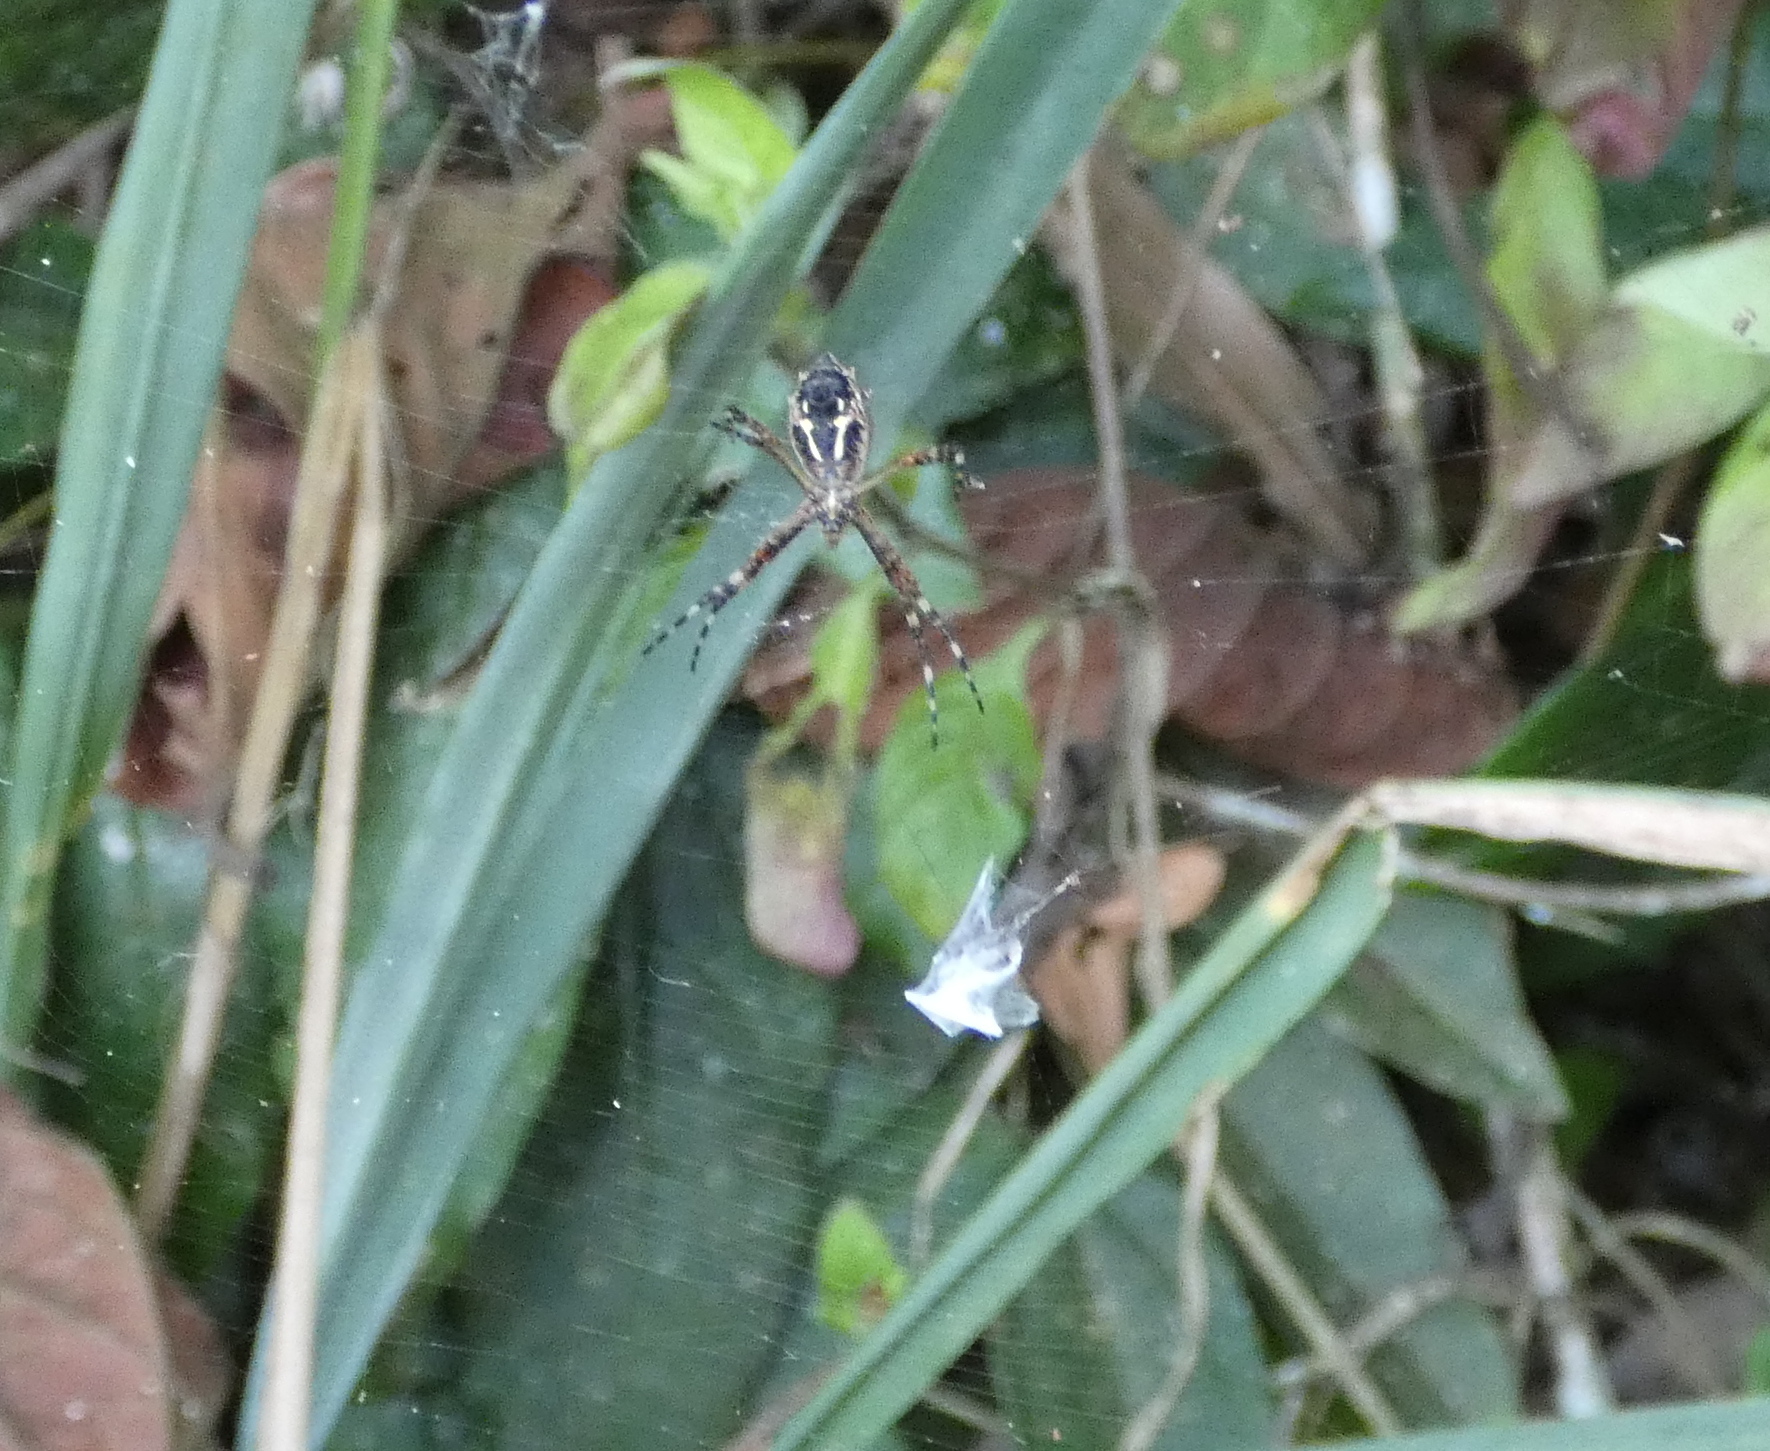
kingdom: Animalia
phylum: Arthropoda
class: Arachnida
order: Araneae
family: Araneidae
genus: Argiope
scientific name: Argiope argentata
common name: Orb weavers
